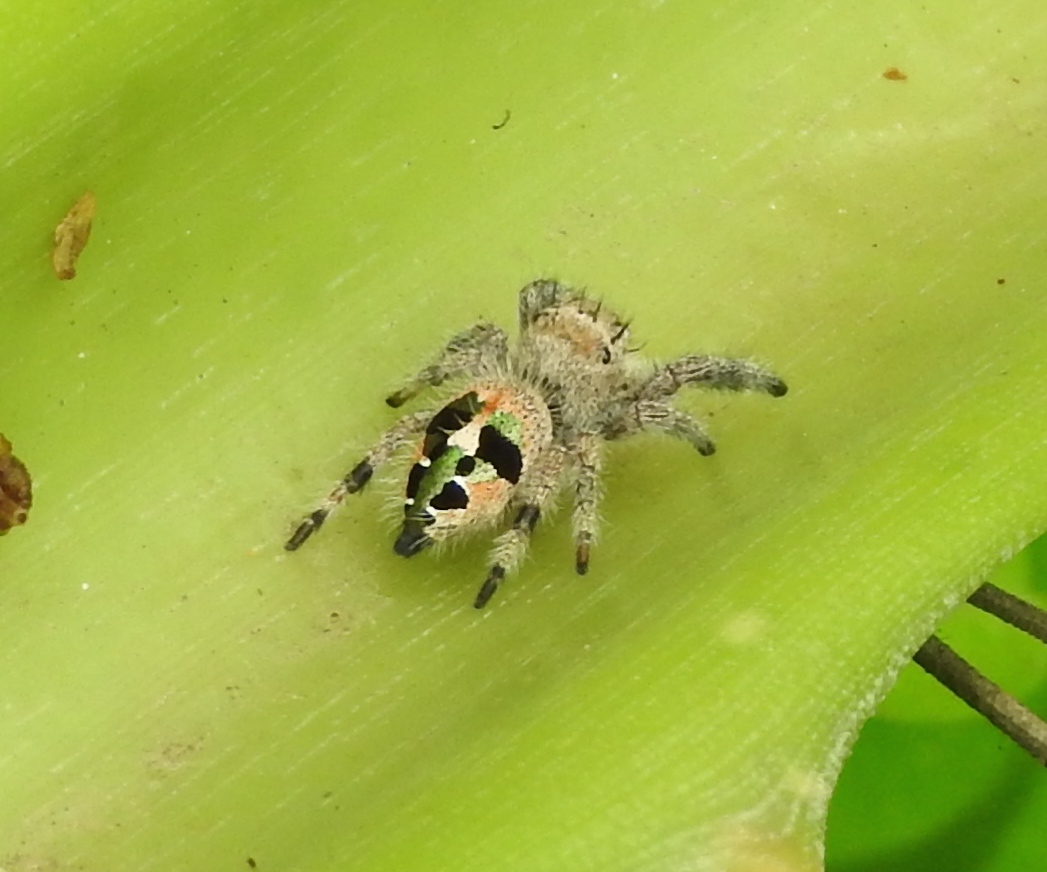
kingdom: Animalia
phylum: Arthropoda
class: Arachnida
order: Araneae
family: Salticidae
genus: Phidippus
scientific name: Phidippus maddisoni
